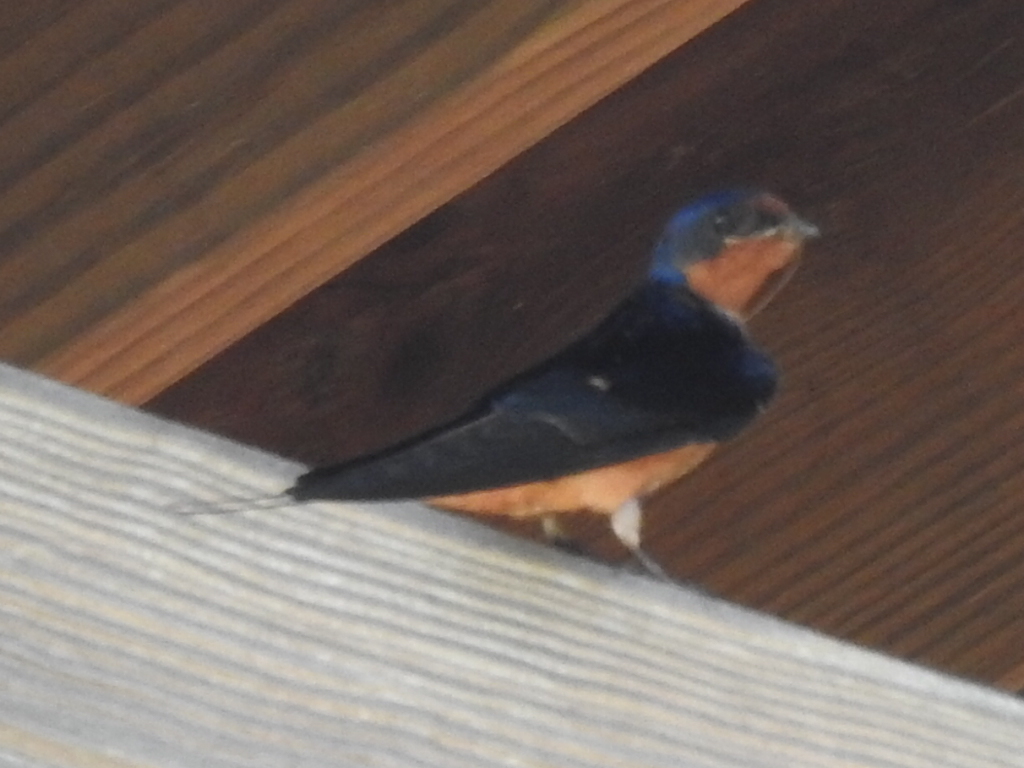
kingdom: Animalia
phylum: Chordata
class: Aves
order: Passeriformes
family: Hirundinidae
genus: Hirundo
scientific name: Hirundo rustica
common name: Barn swallow
